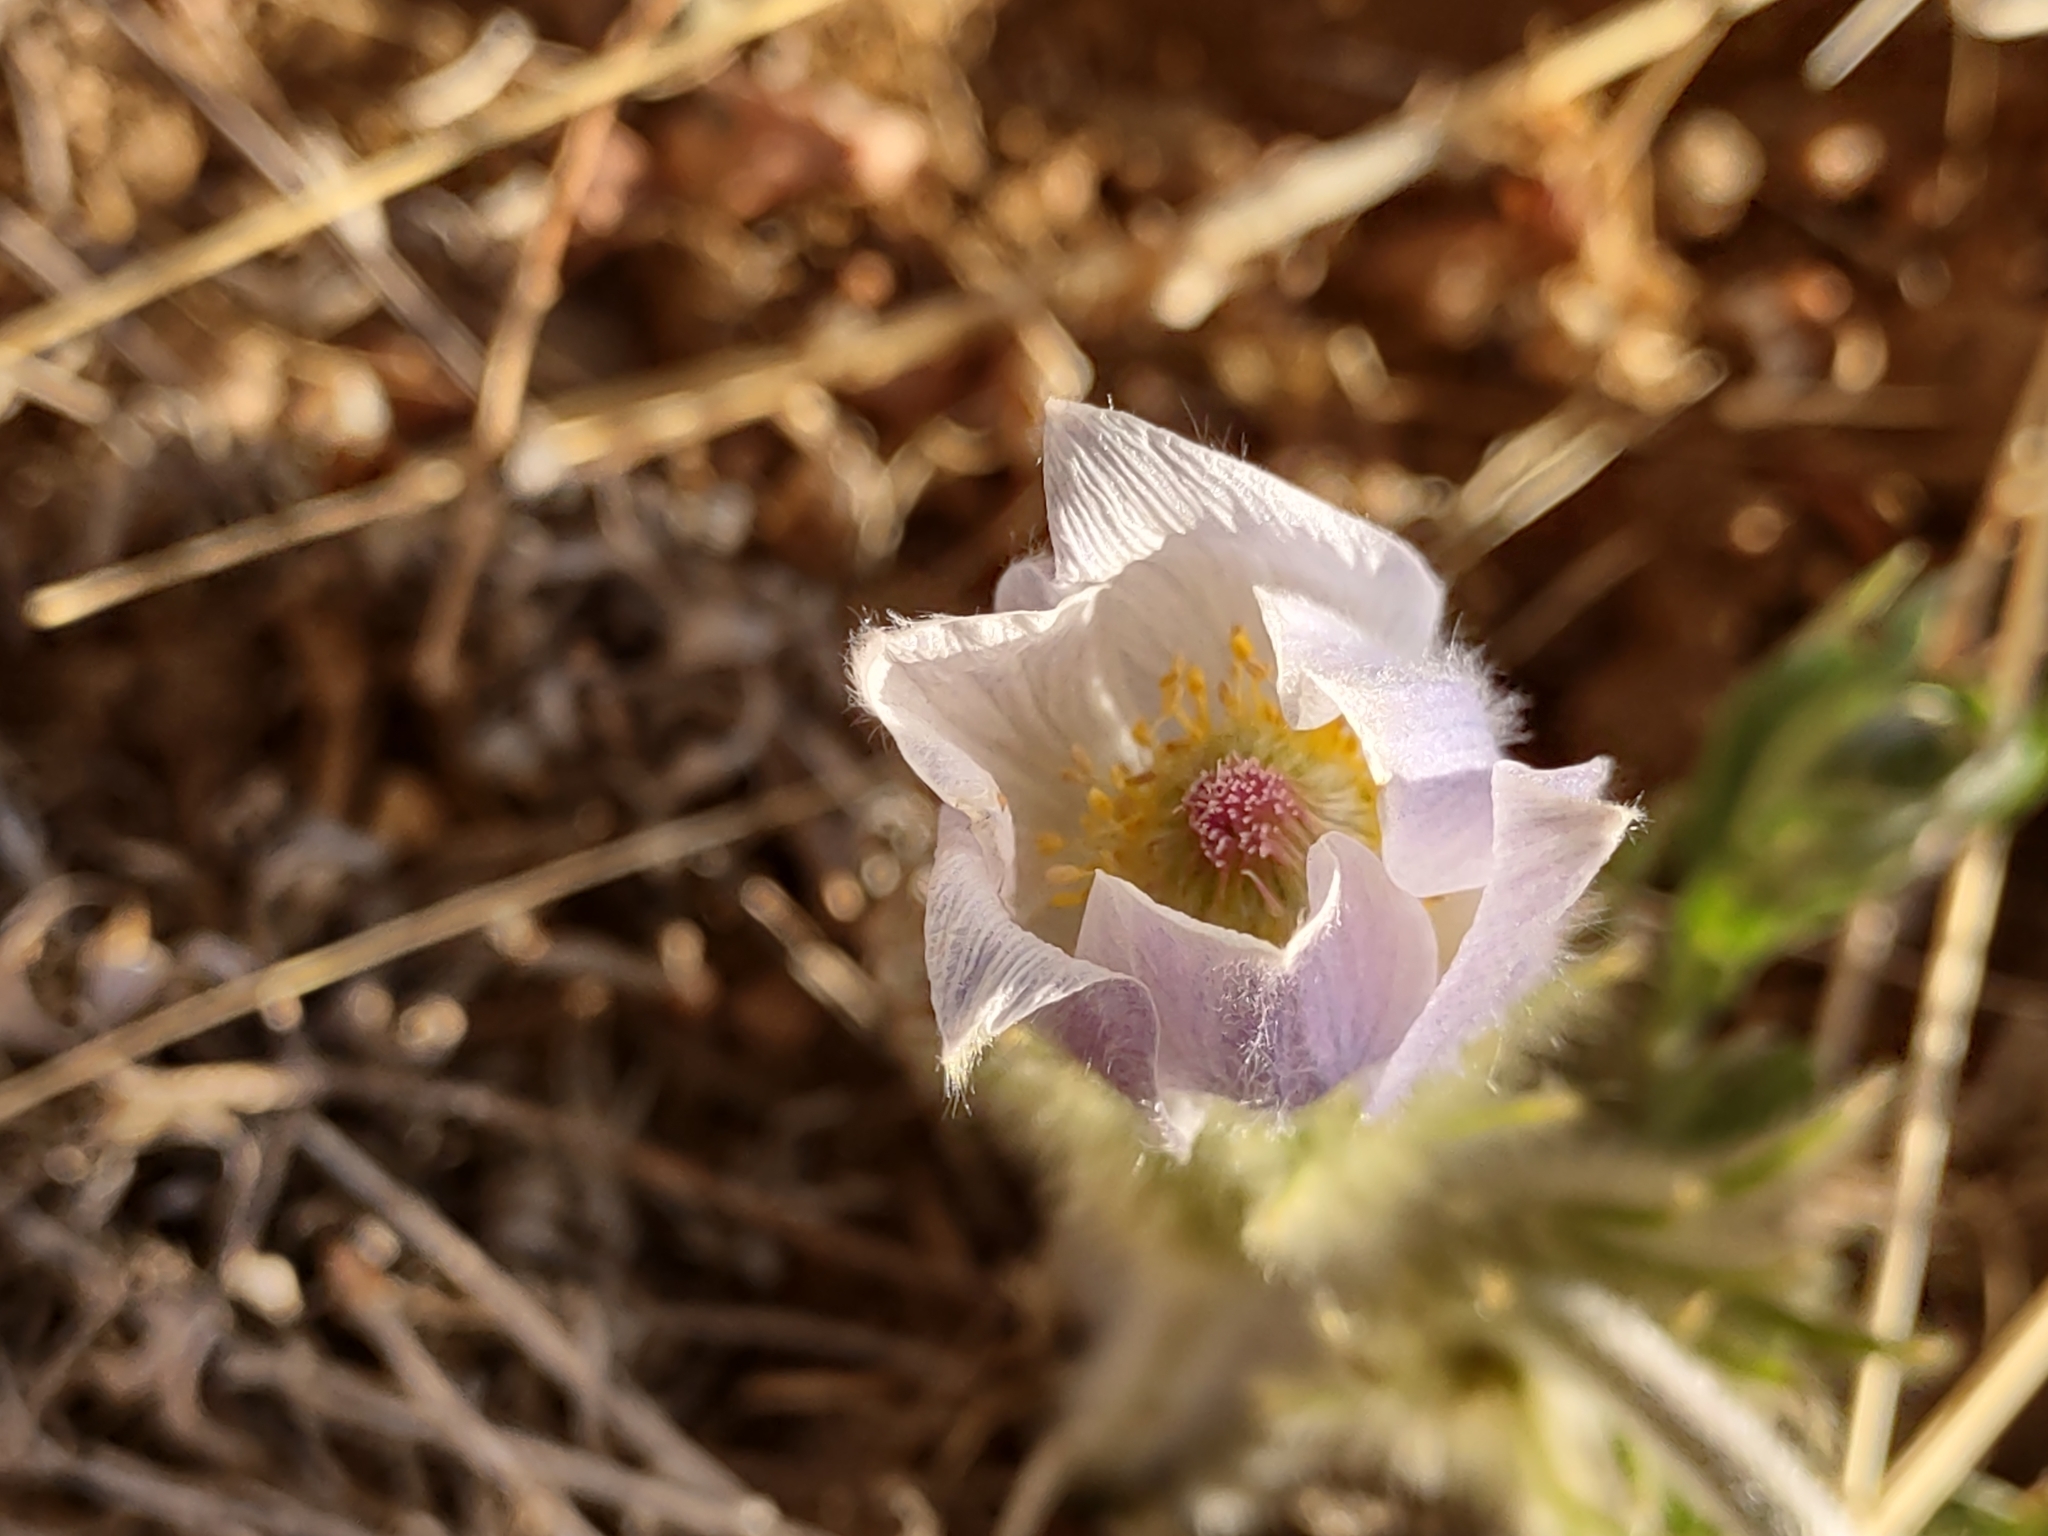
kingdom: Plantae
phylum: Tracheophyta
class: Magnoliopsida
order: Ranunculales
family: Ranunculaceae
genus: Pulsatilla
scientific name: Pulsatilla nuttalliana
